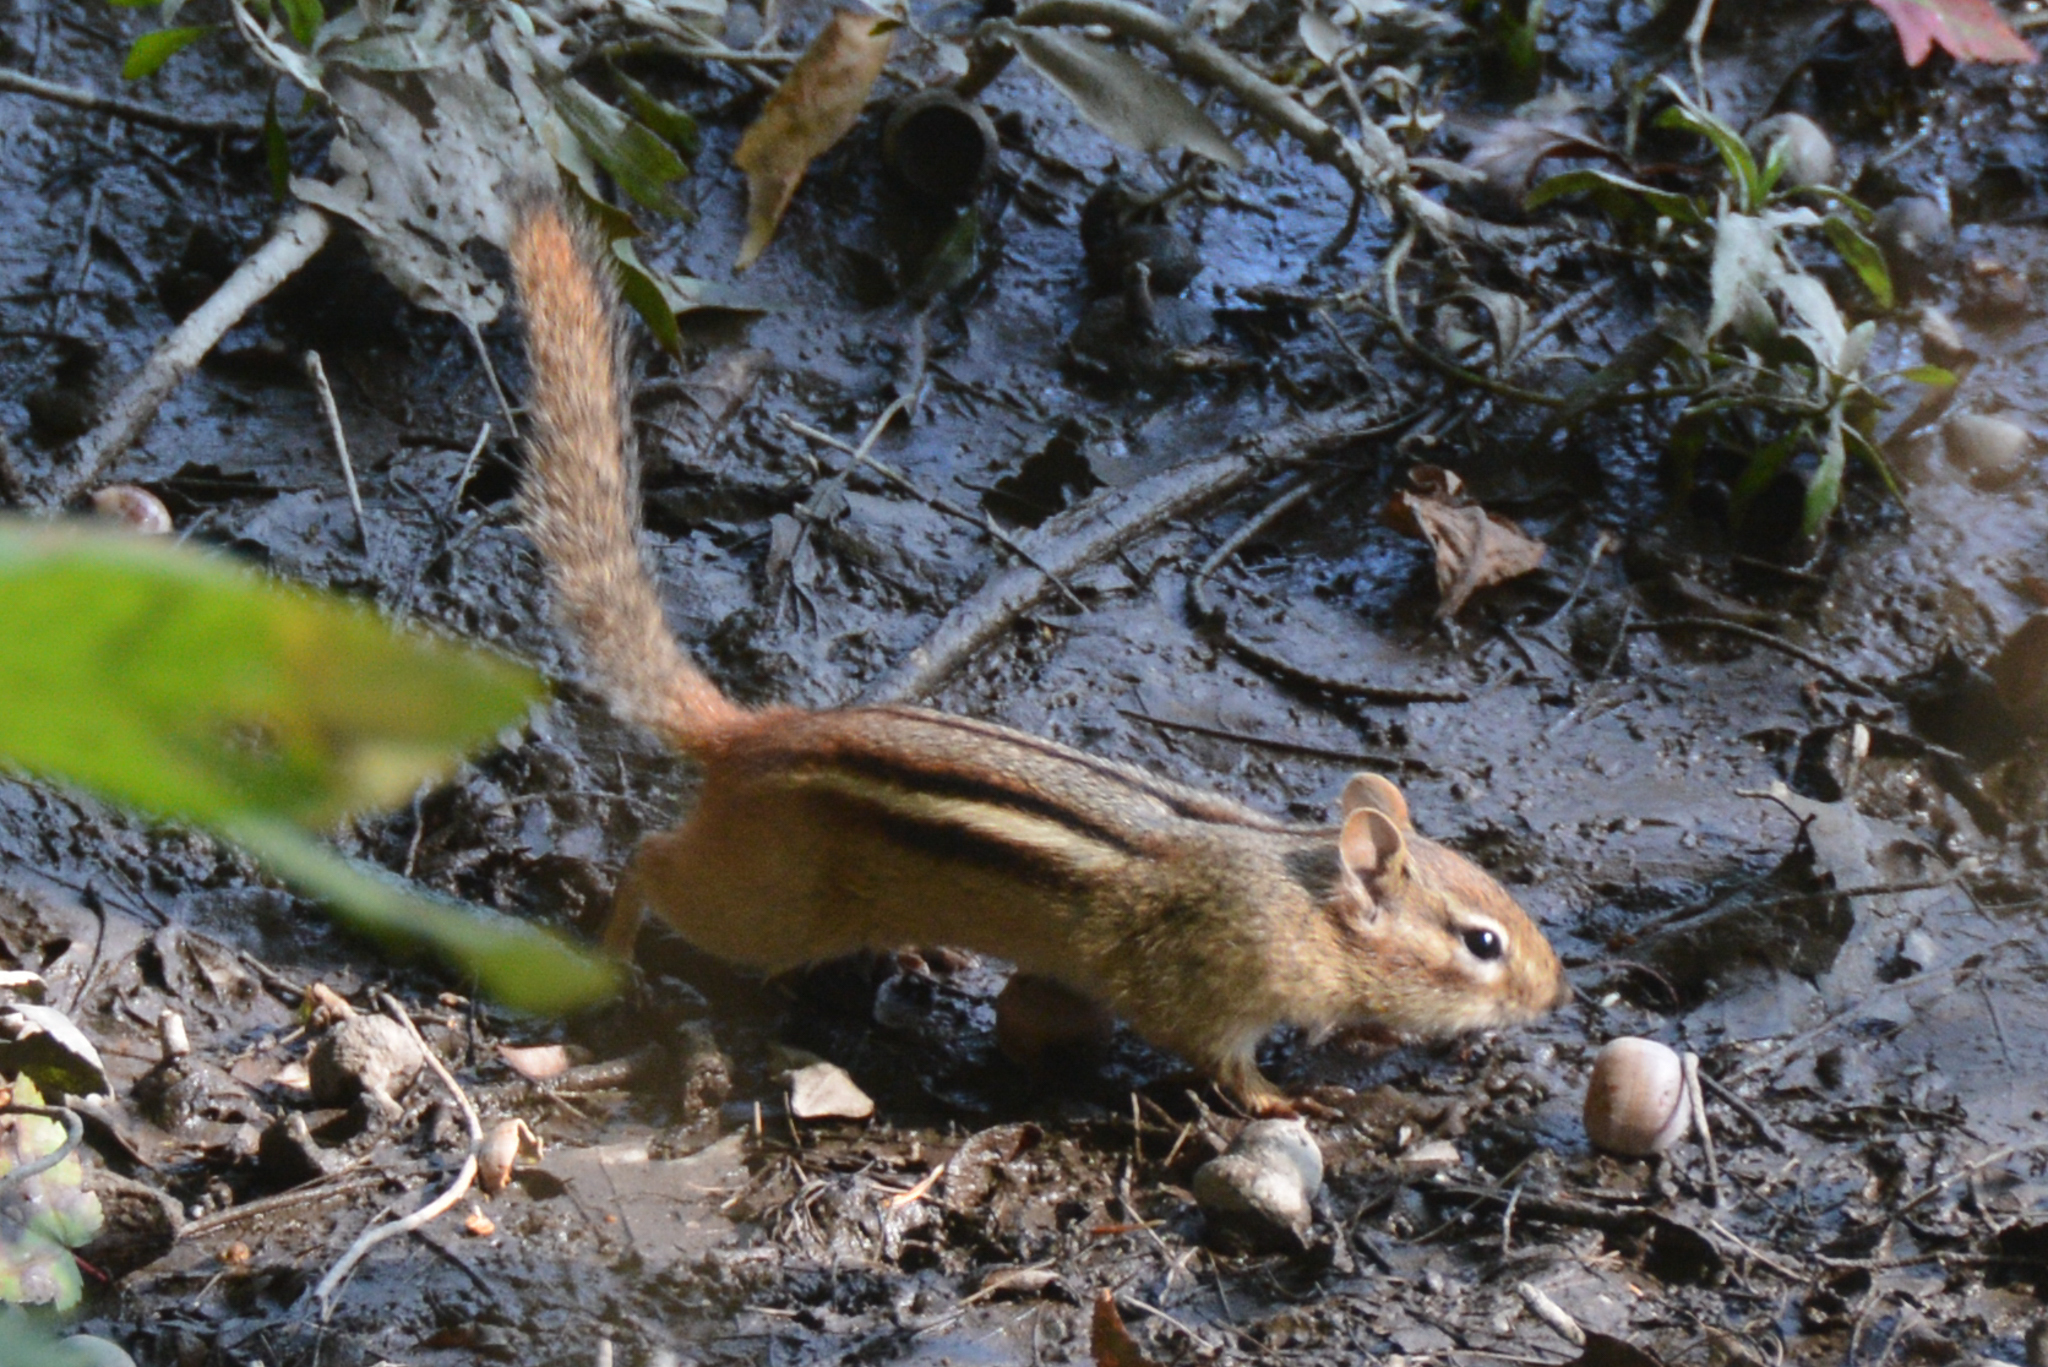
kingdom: Animalia
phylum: Chordata
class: Mammalia
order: Rodentia
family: Sciuridae
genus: Tamias
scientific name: Tamias striatus
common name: Eastern chipmunk
